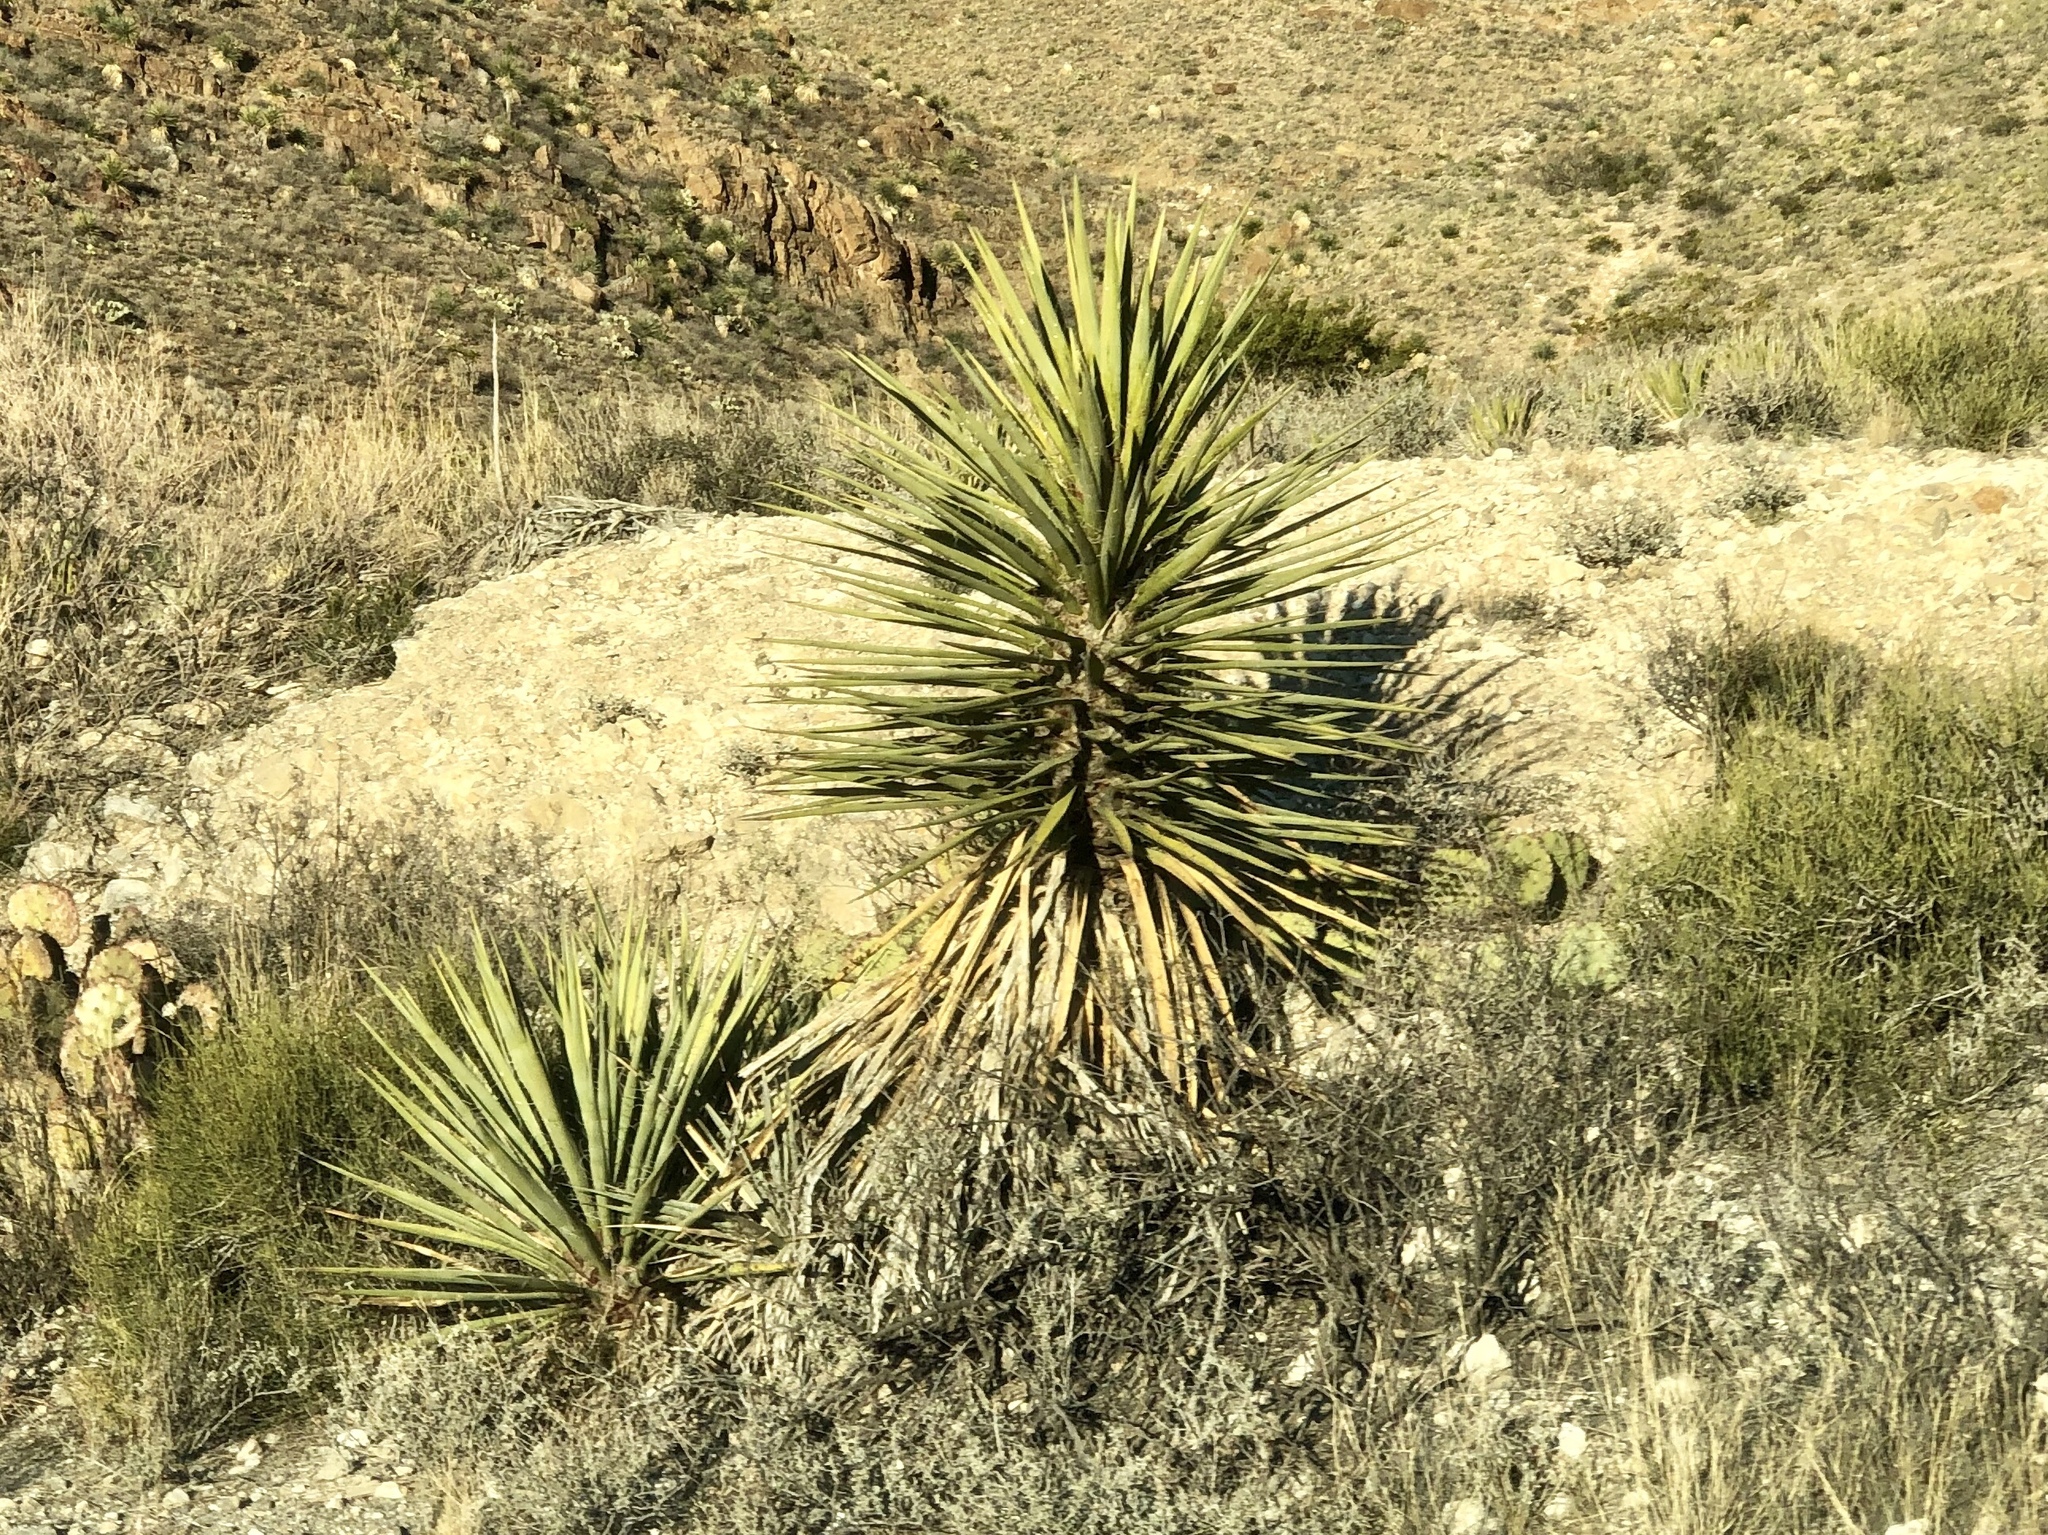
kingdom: Plantae
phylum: Tracheophyta
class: Liliopsida
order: Asparagales
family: Asparagaceae
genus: Yucca
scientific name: Yucca treculiana
